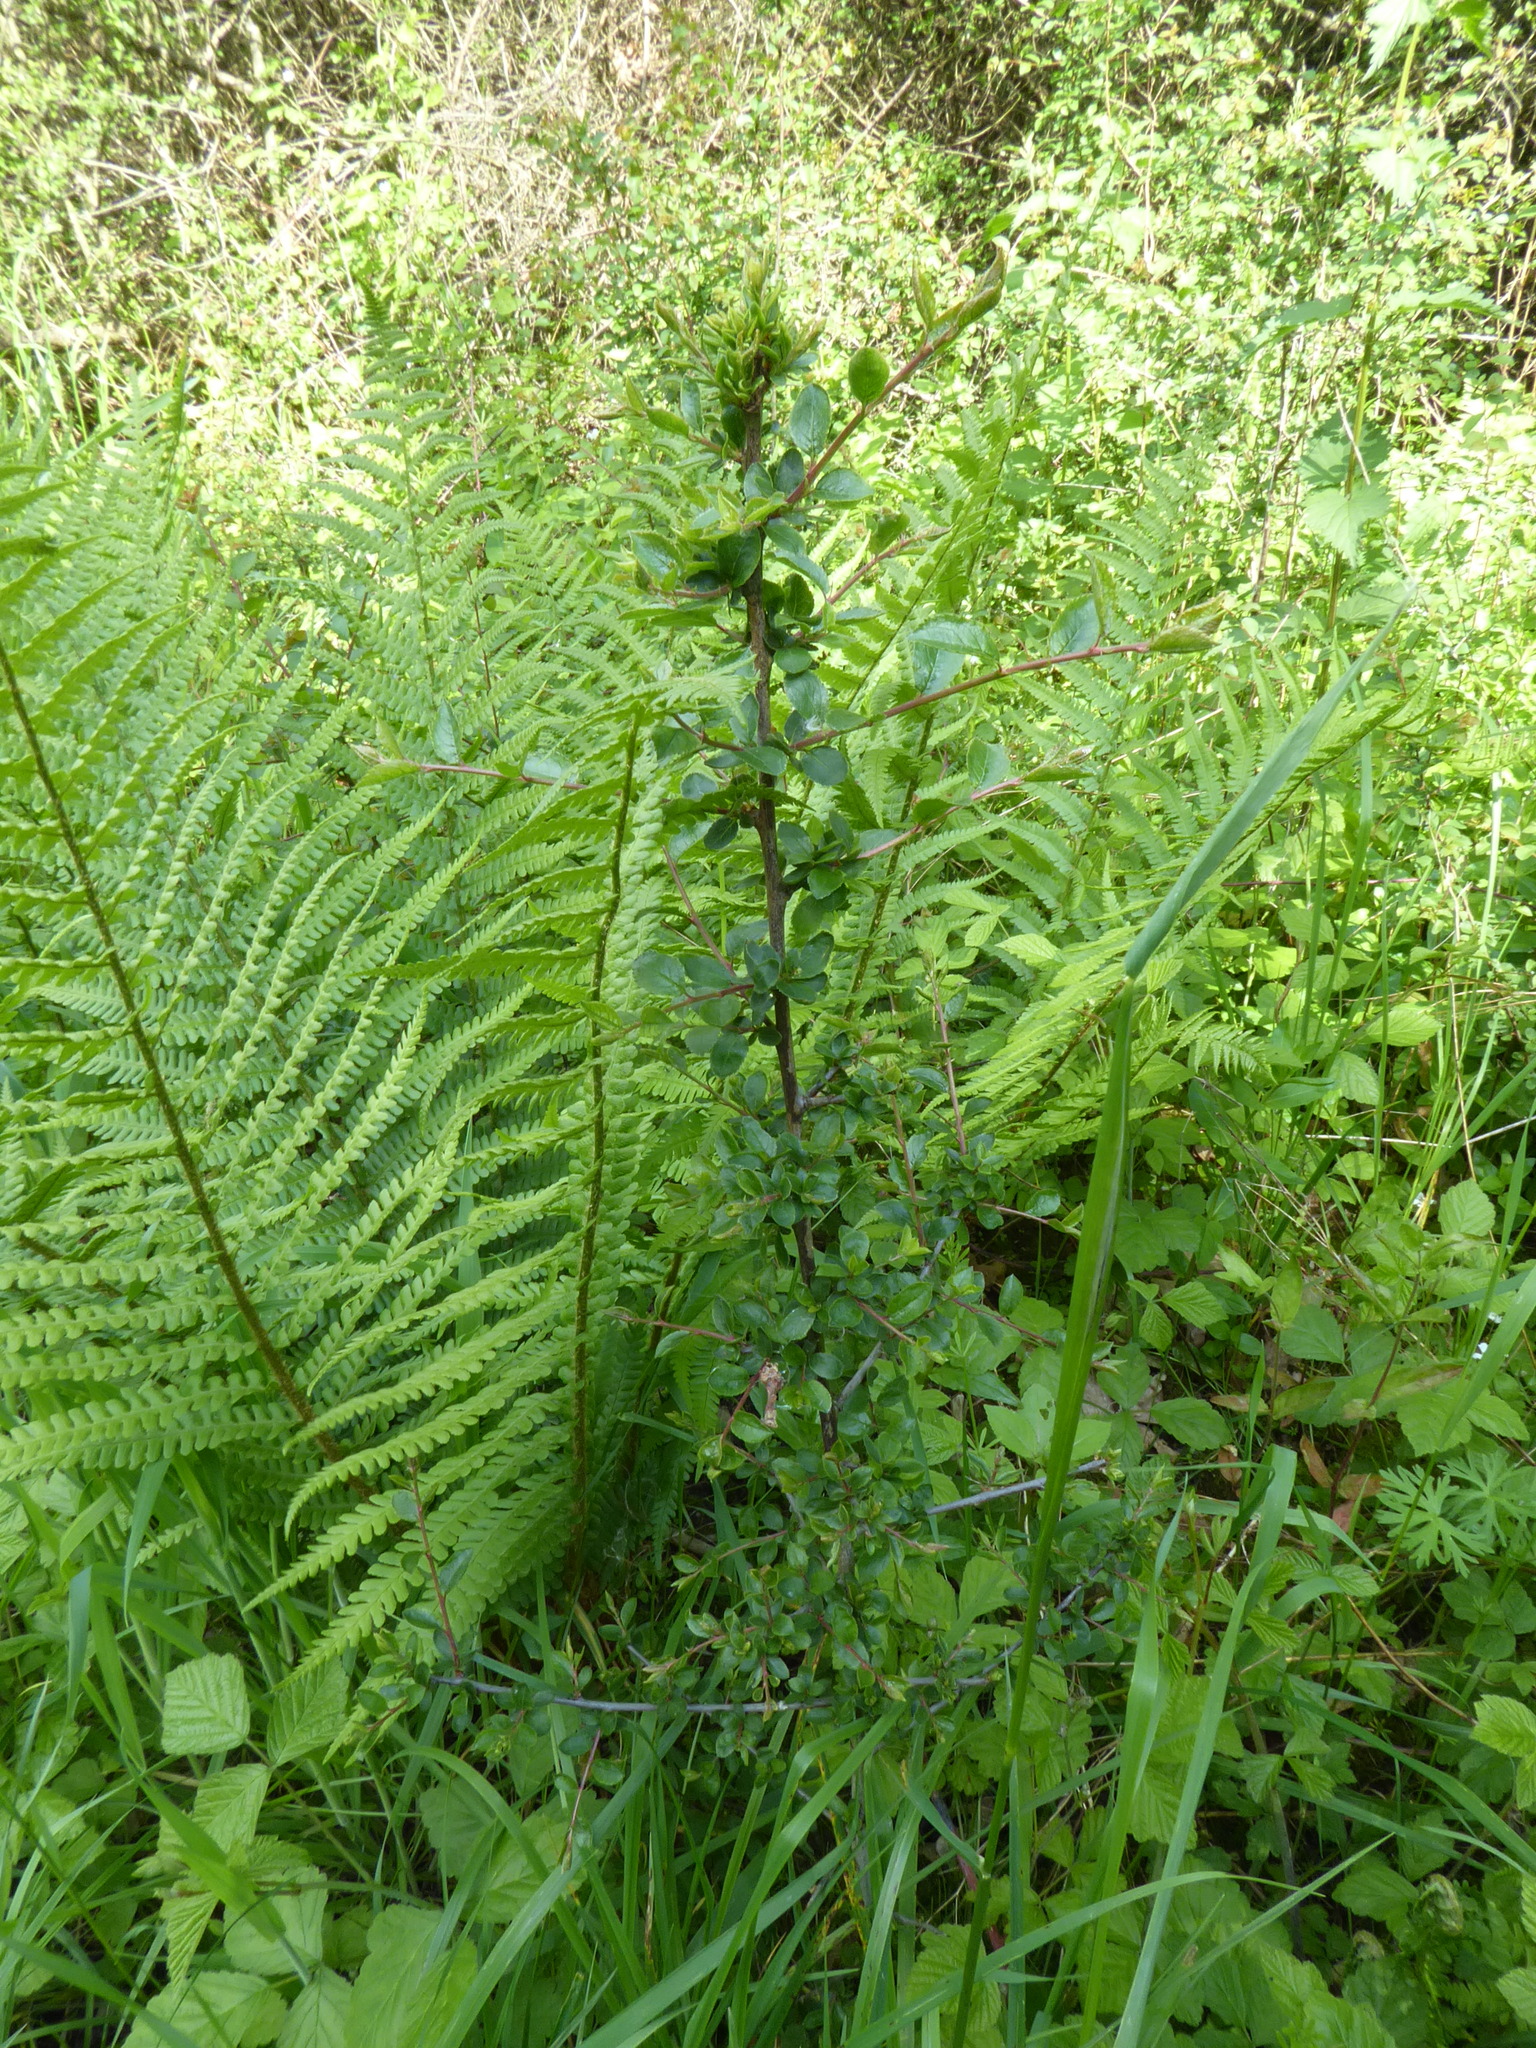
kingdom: Plantae
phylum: Tracheophyta
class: Magnoliopsida
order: Rosales
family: Rosaceae
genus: Prunus
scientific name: Prunus spinosa
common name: Blackthorn
